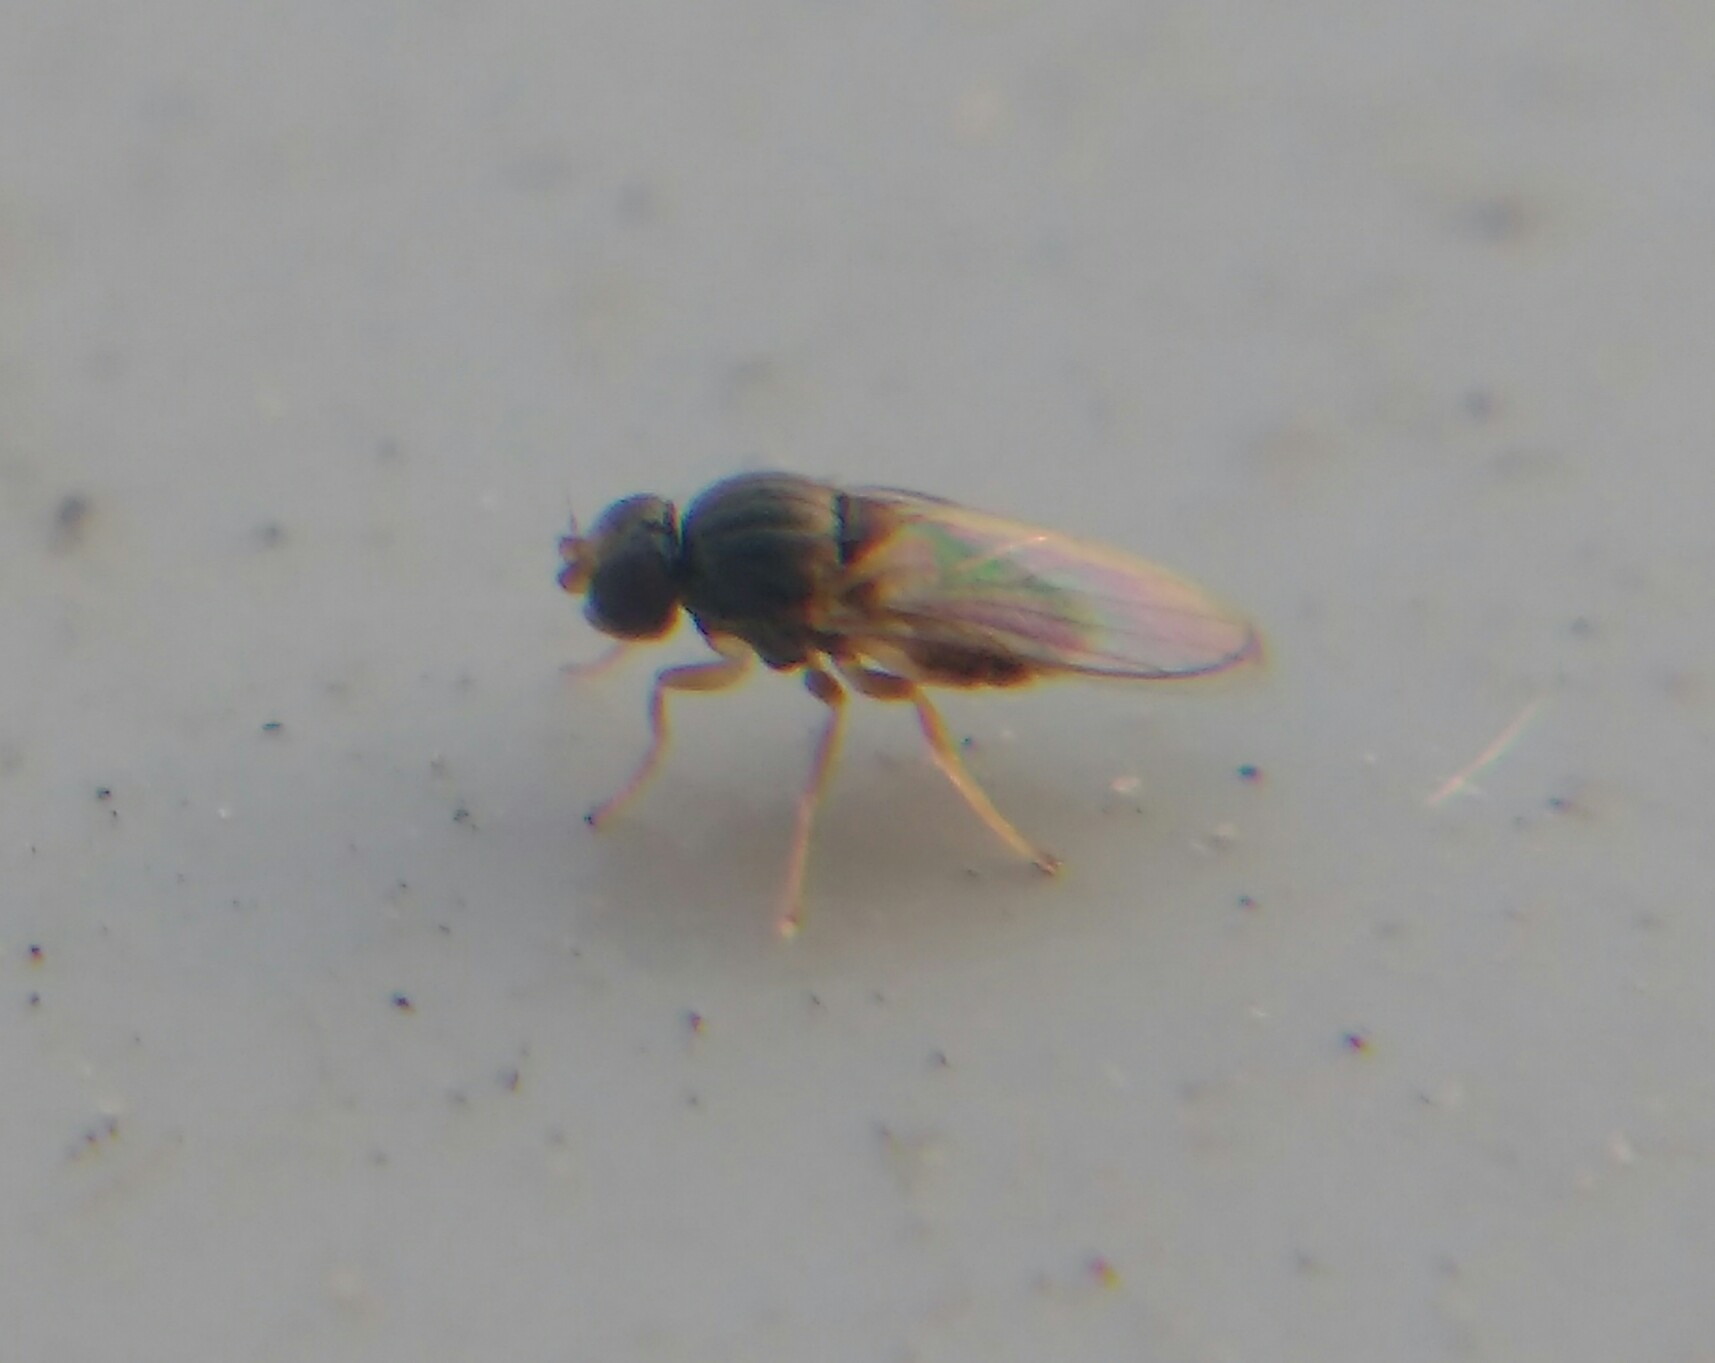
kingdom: Animalia
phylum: Arthropoda
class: Insecta
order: Diptera
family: Chloropidae
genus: Tricimba
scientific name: Tricimba cincta
